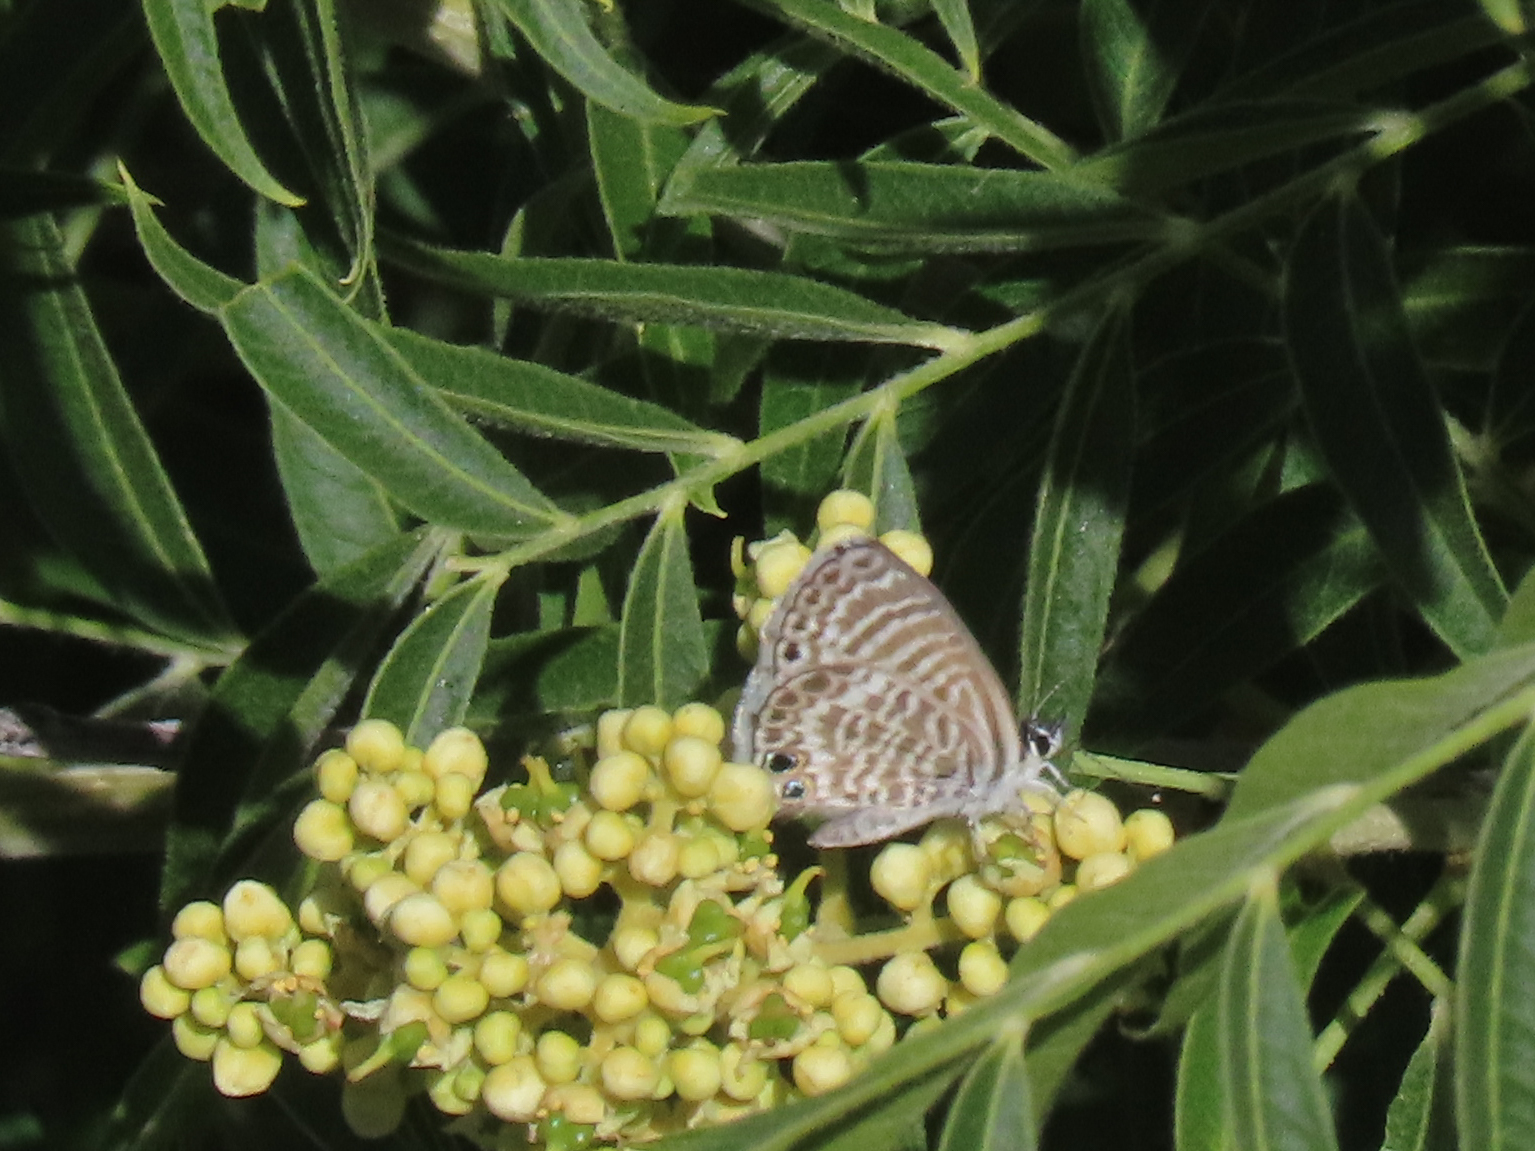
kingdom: Animalia
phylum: Arthropoda
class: Insecta
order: Lepidoptera
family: Lycaenidae
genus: Leptotes
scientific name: Leptotes marina
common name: Marine blue
